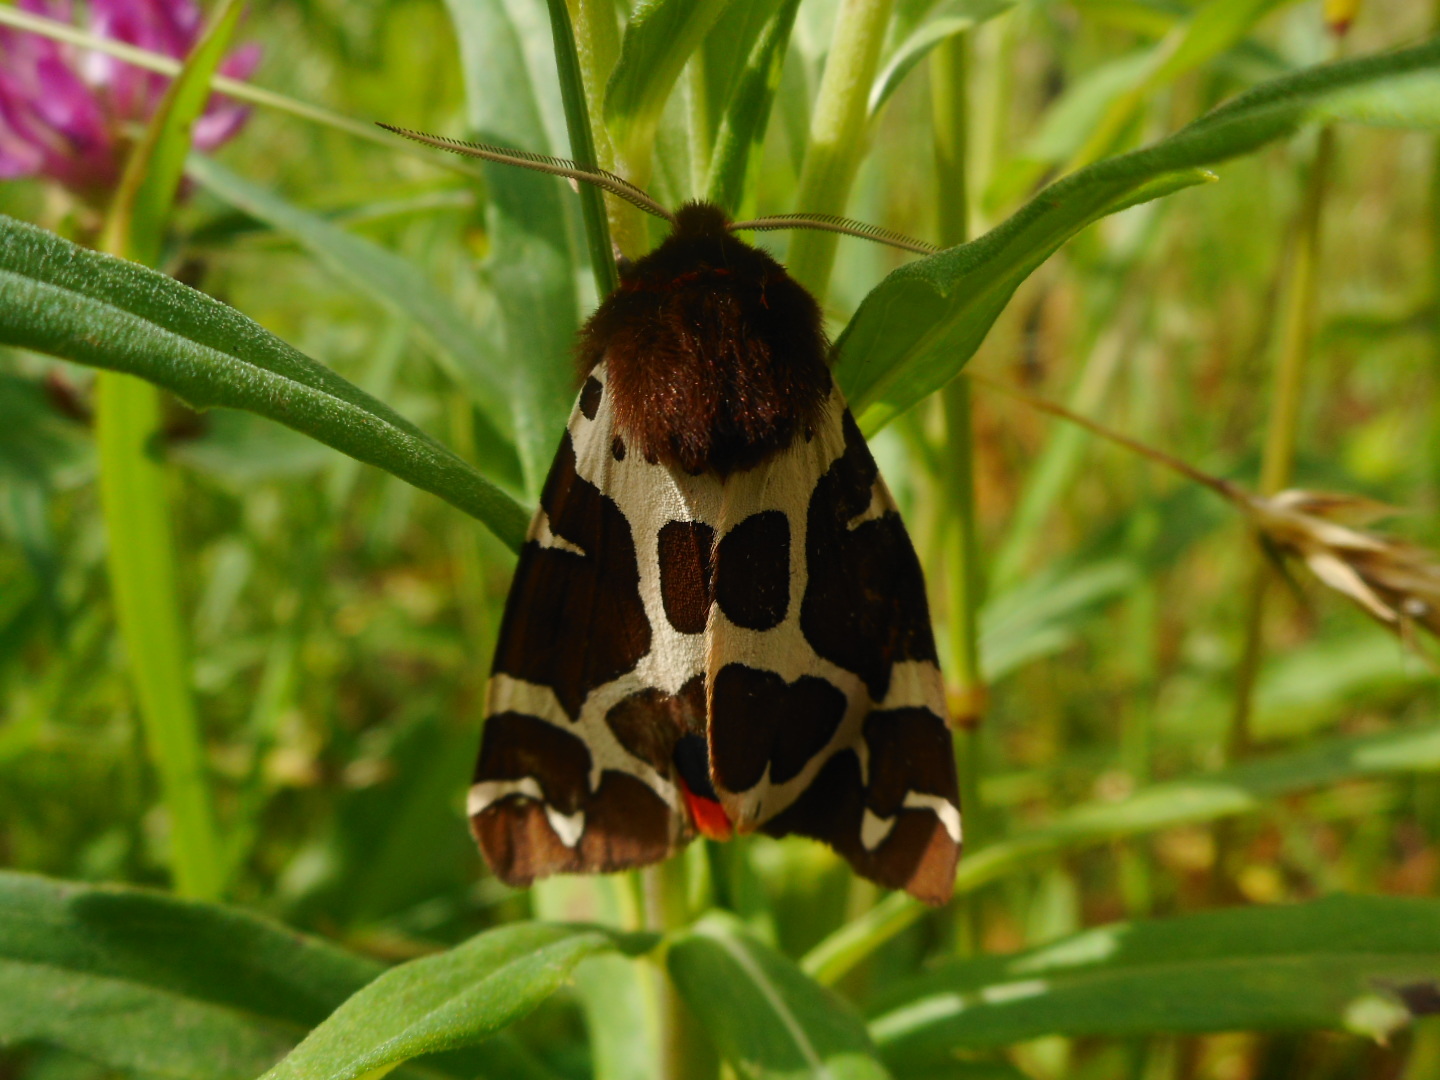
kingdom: Animalia
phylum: Arthropoda
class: Insecta
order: Lepidoptera
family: Erebidae
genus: Arctia
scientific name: Arctia caja
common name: Garden tiger
